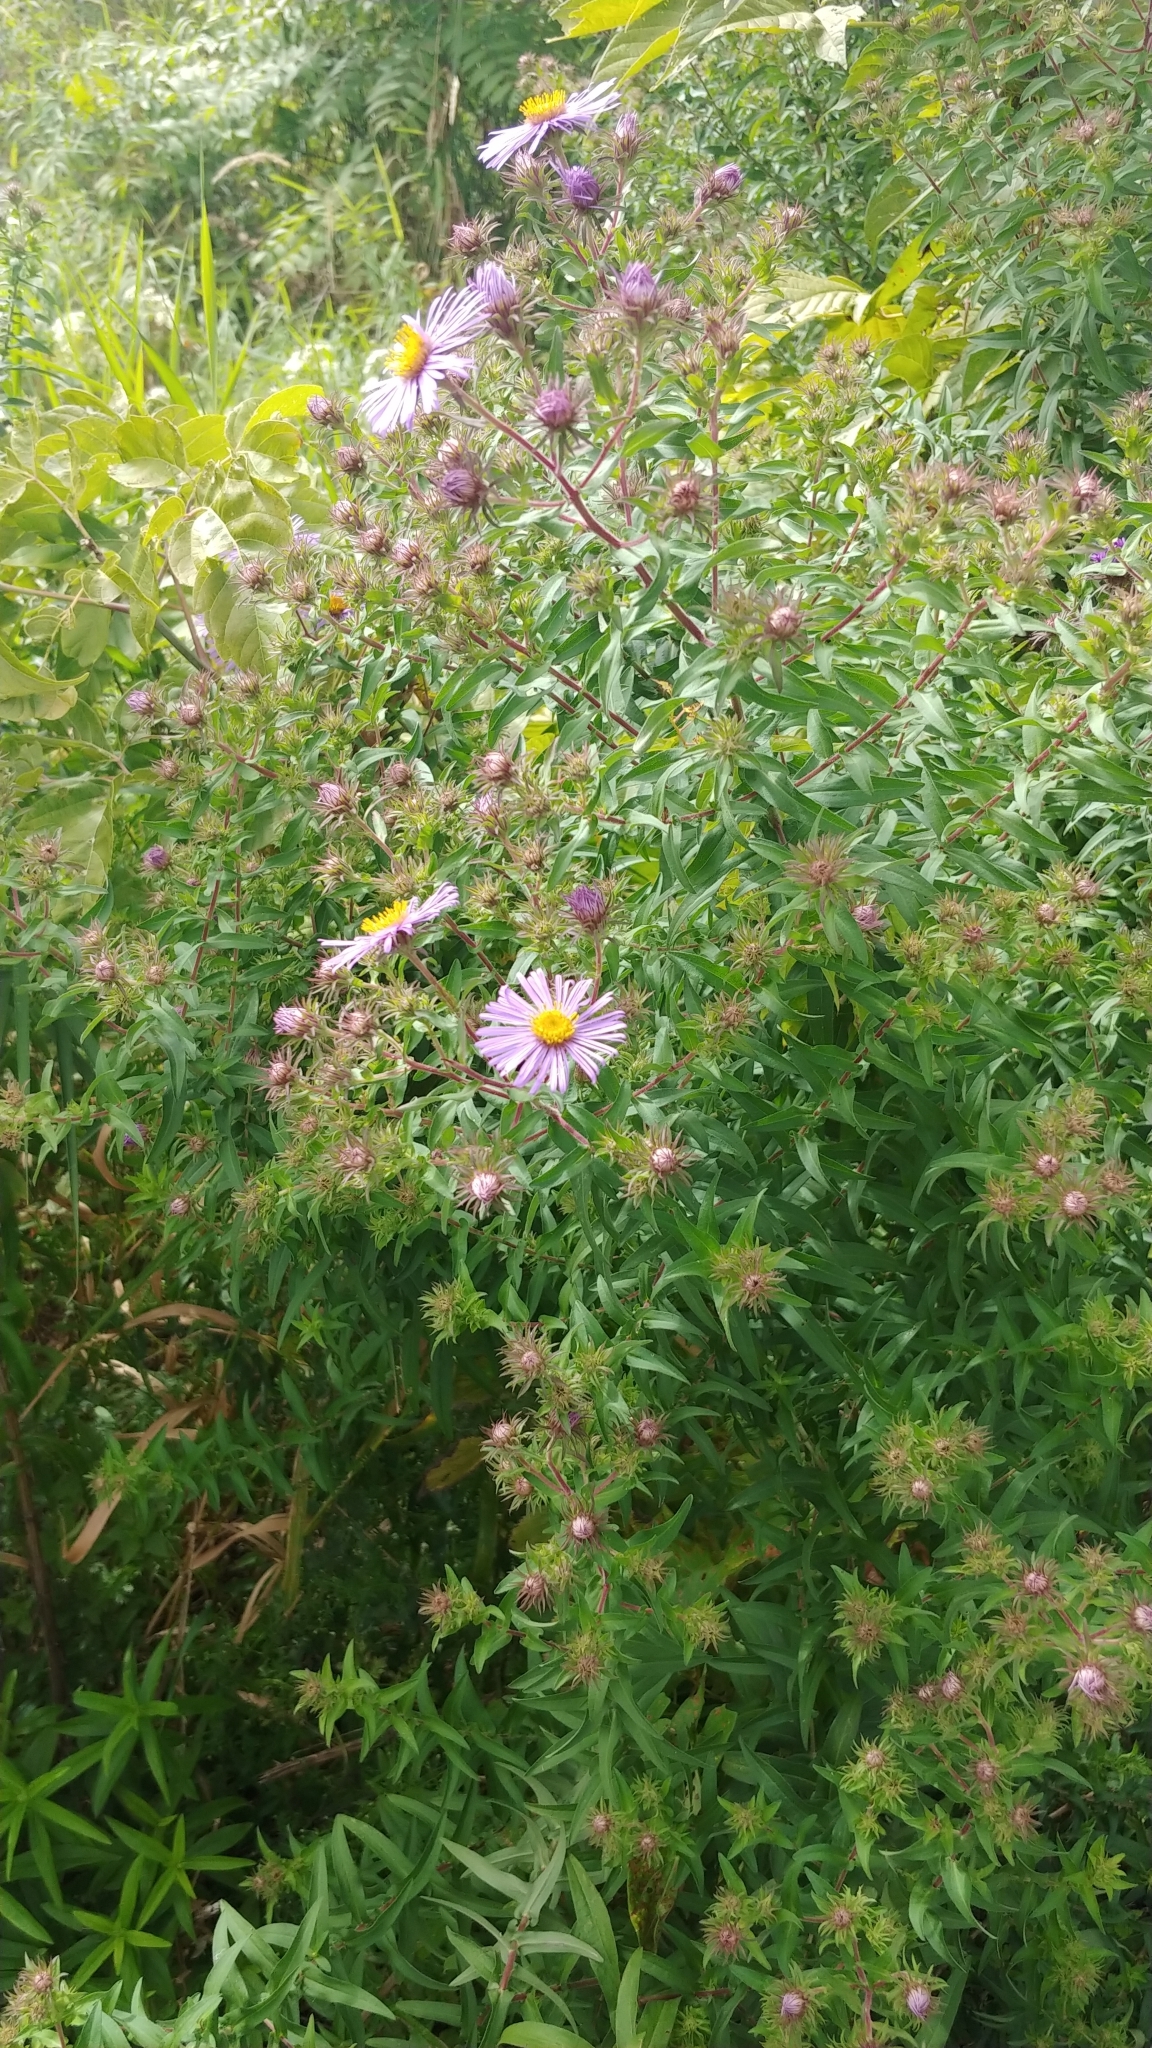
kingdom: Plantae
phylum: Tracheophyta
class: Magnoliopsida
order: Asterales
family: Asteraceae
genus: Symphyotrichum
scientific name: Symphyotrichum novae-angliae
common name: Michaelmas daisy
